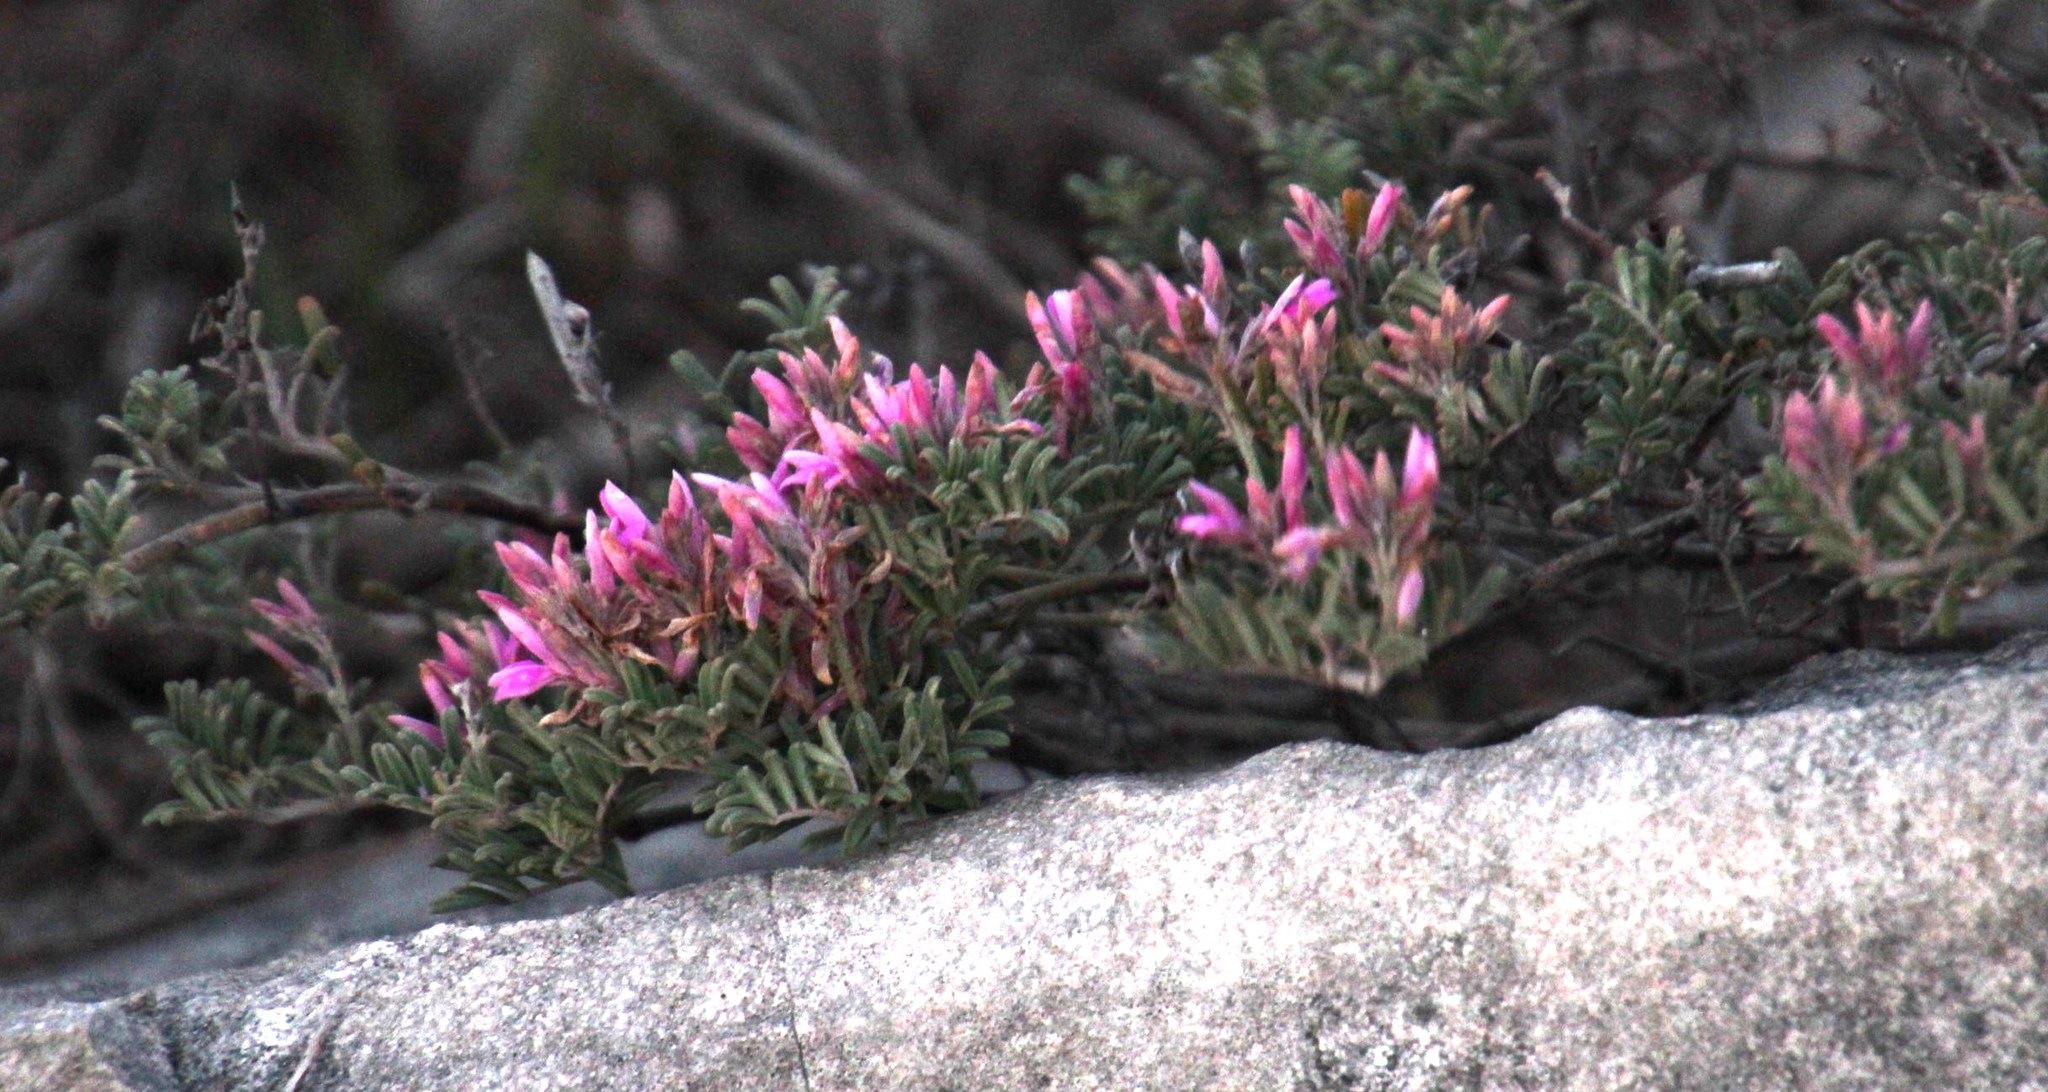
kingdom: Plantae
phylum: Tracheophyta
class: Magnoliopsida
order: Fabales
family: Fabaceae
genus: Microcharis
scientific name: Microcharis praetermissa
